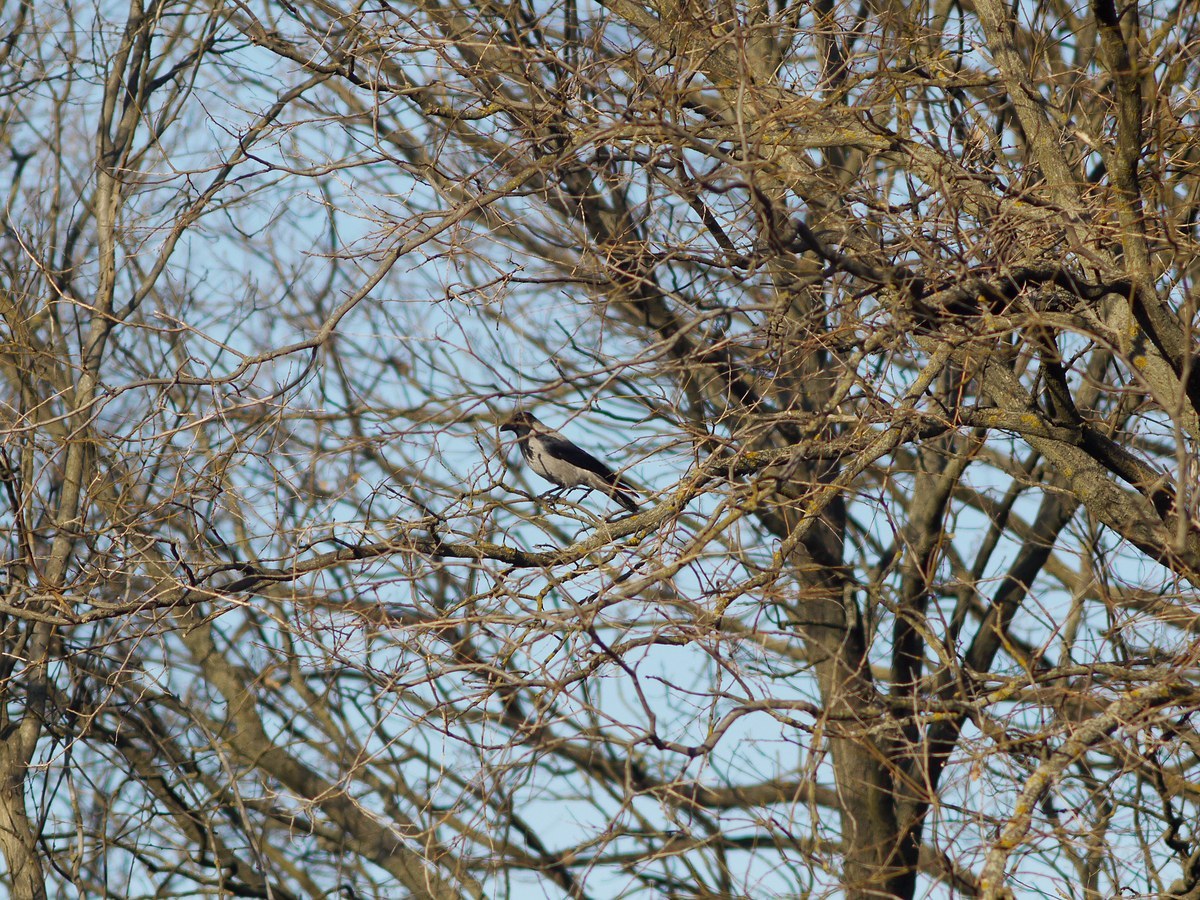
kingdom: Animalia
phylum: Chordata
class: Aves
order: Passeriformes
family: Corvidae
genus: Corvus
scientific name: Corvus cornix
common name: Hooded crow
